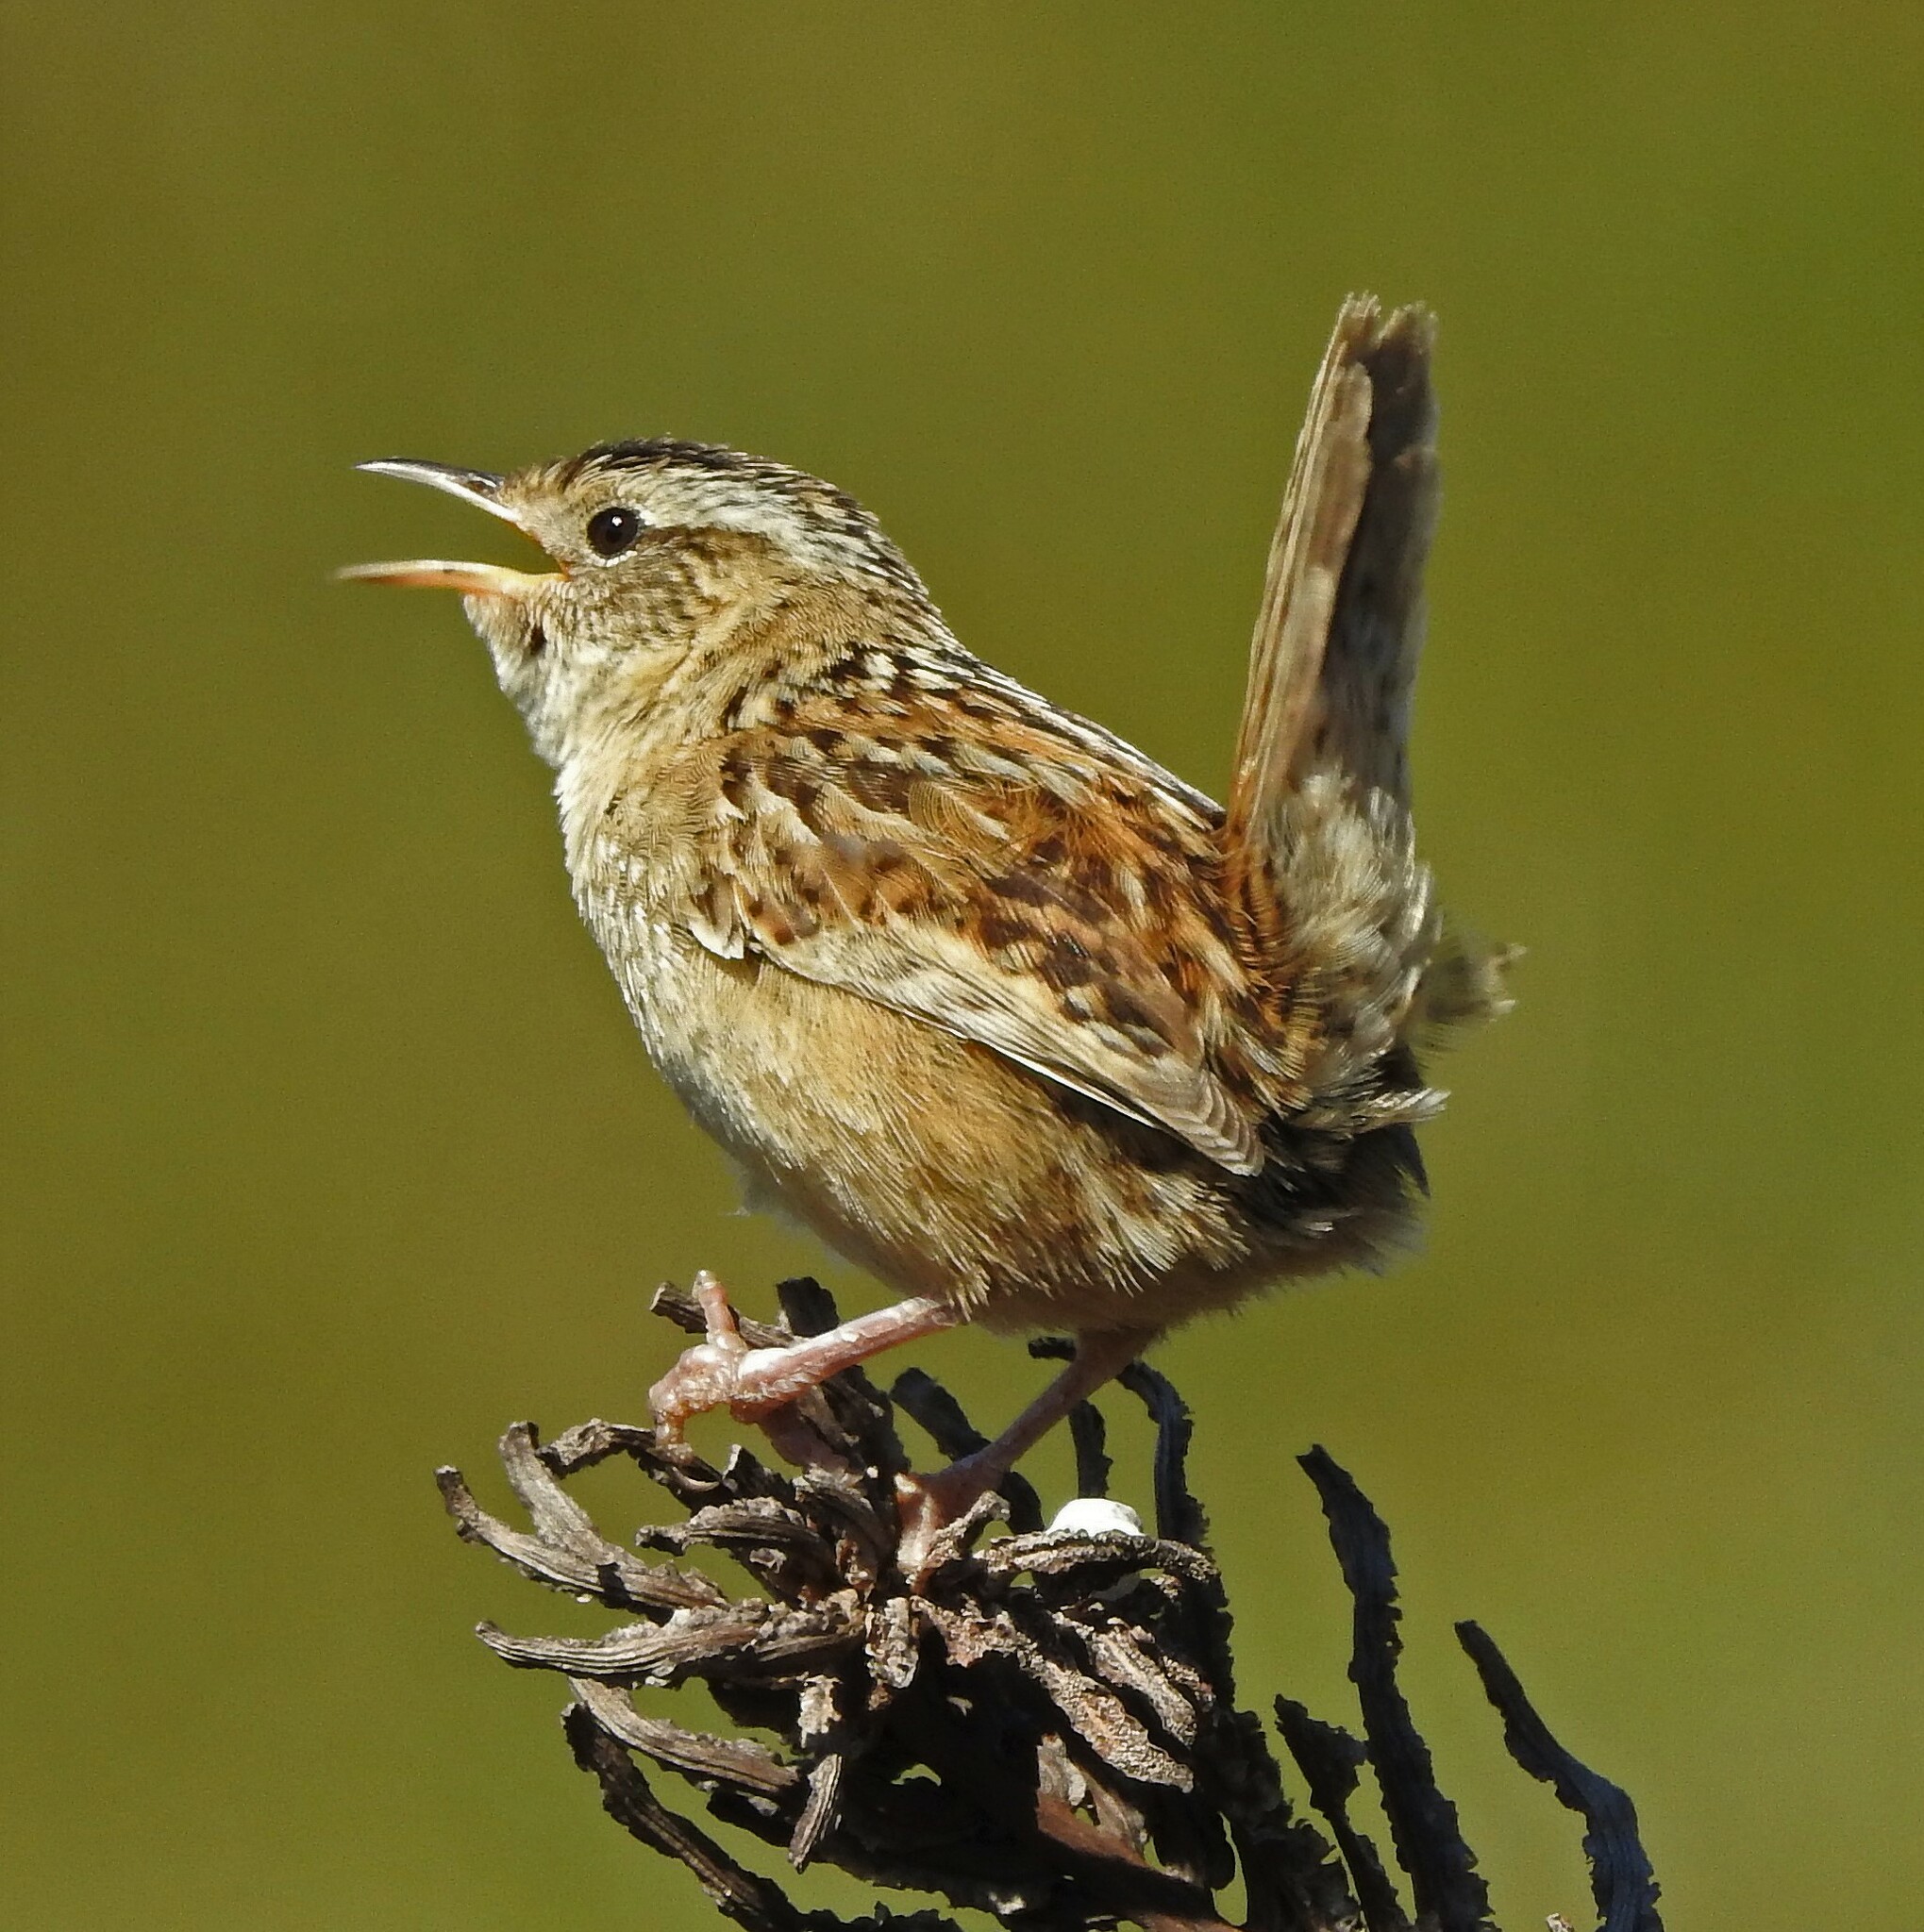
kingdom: Animalia
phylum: Chordata
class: Aves
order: Passeriformes
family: Troglodytidae
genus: Cistothorus
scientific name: Cistothorus platensis
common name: Sedge wren
